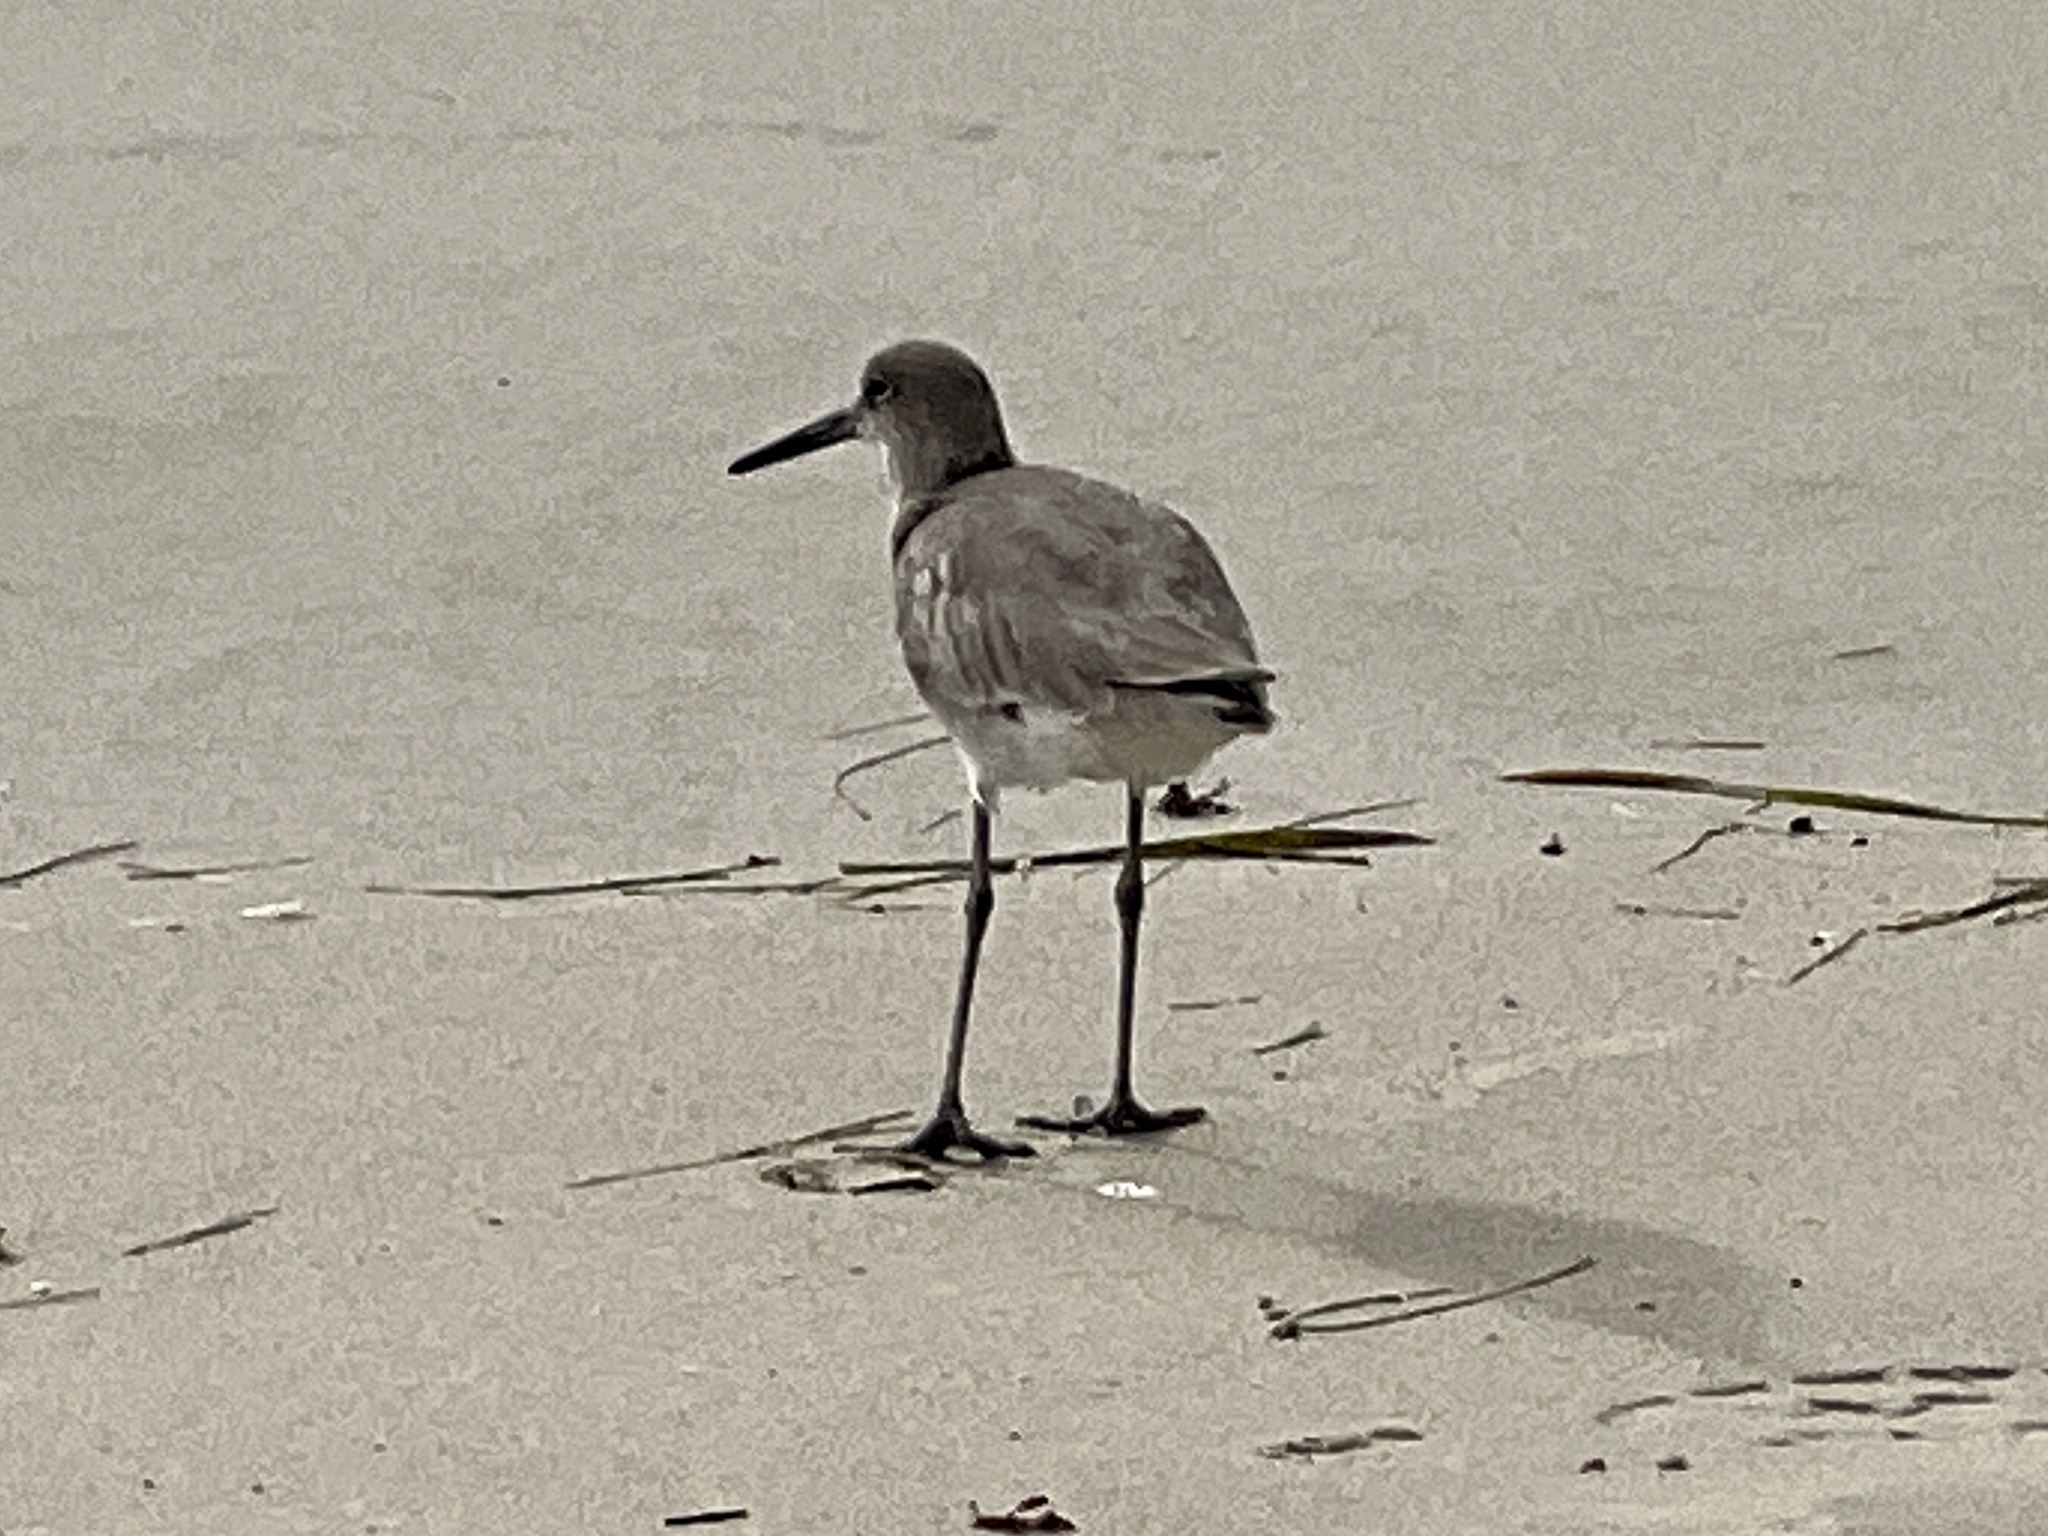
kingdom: Animalia
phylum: Chordata
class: Aves
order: Charadriiformes
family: Scolopacidae
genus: Tringa
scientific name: Tringa semipalmata
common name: Willet
